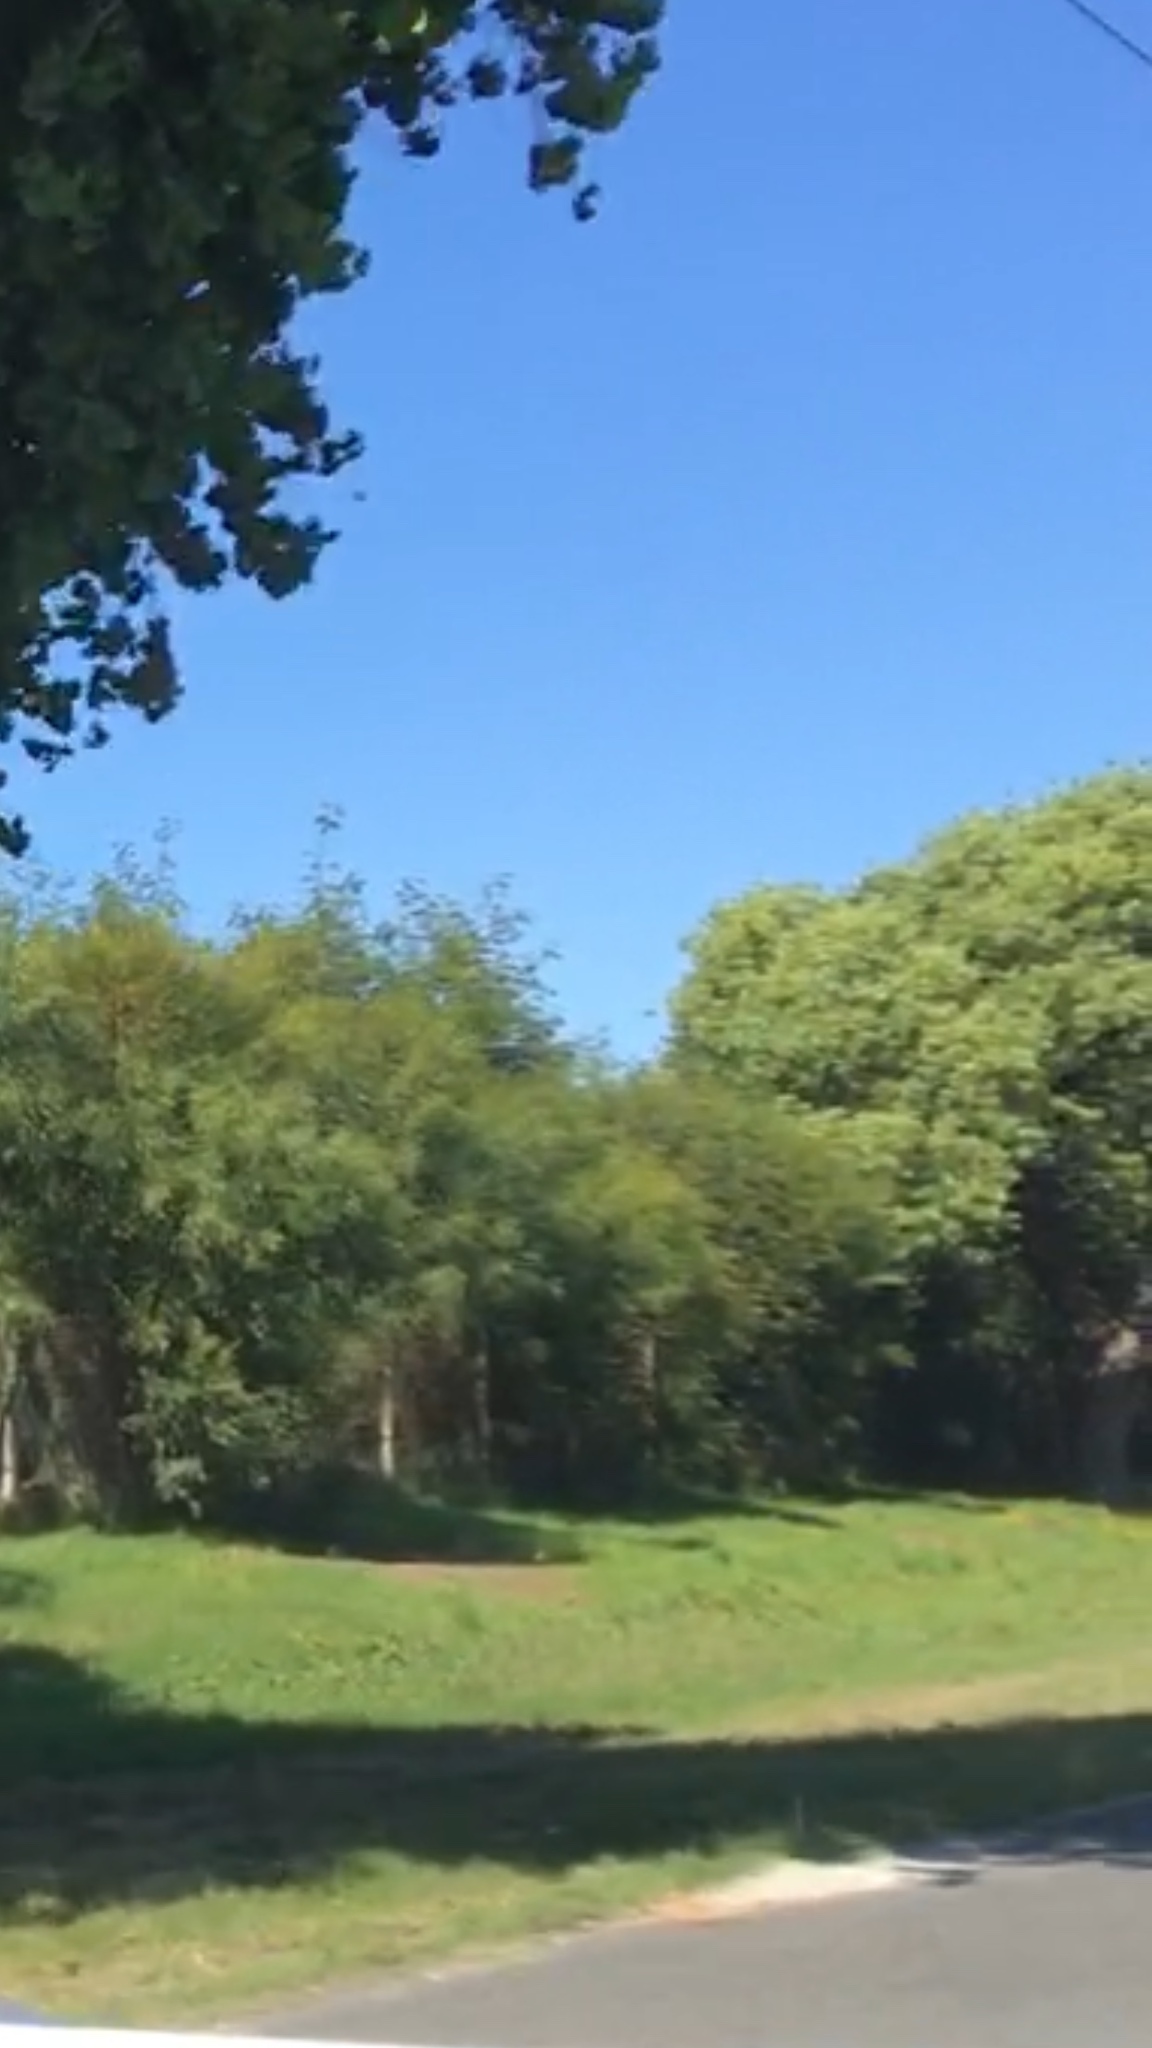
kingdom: Plantae
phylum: Tracheophyta
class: Magnoliopsida
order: Fabales
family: Fabaceae
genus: Paraserianthes
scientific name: Paraserianthes lophantha
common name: Plume albizia
